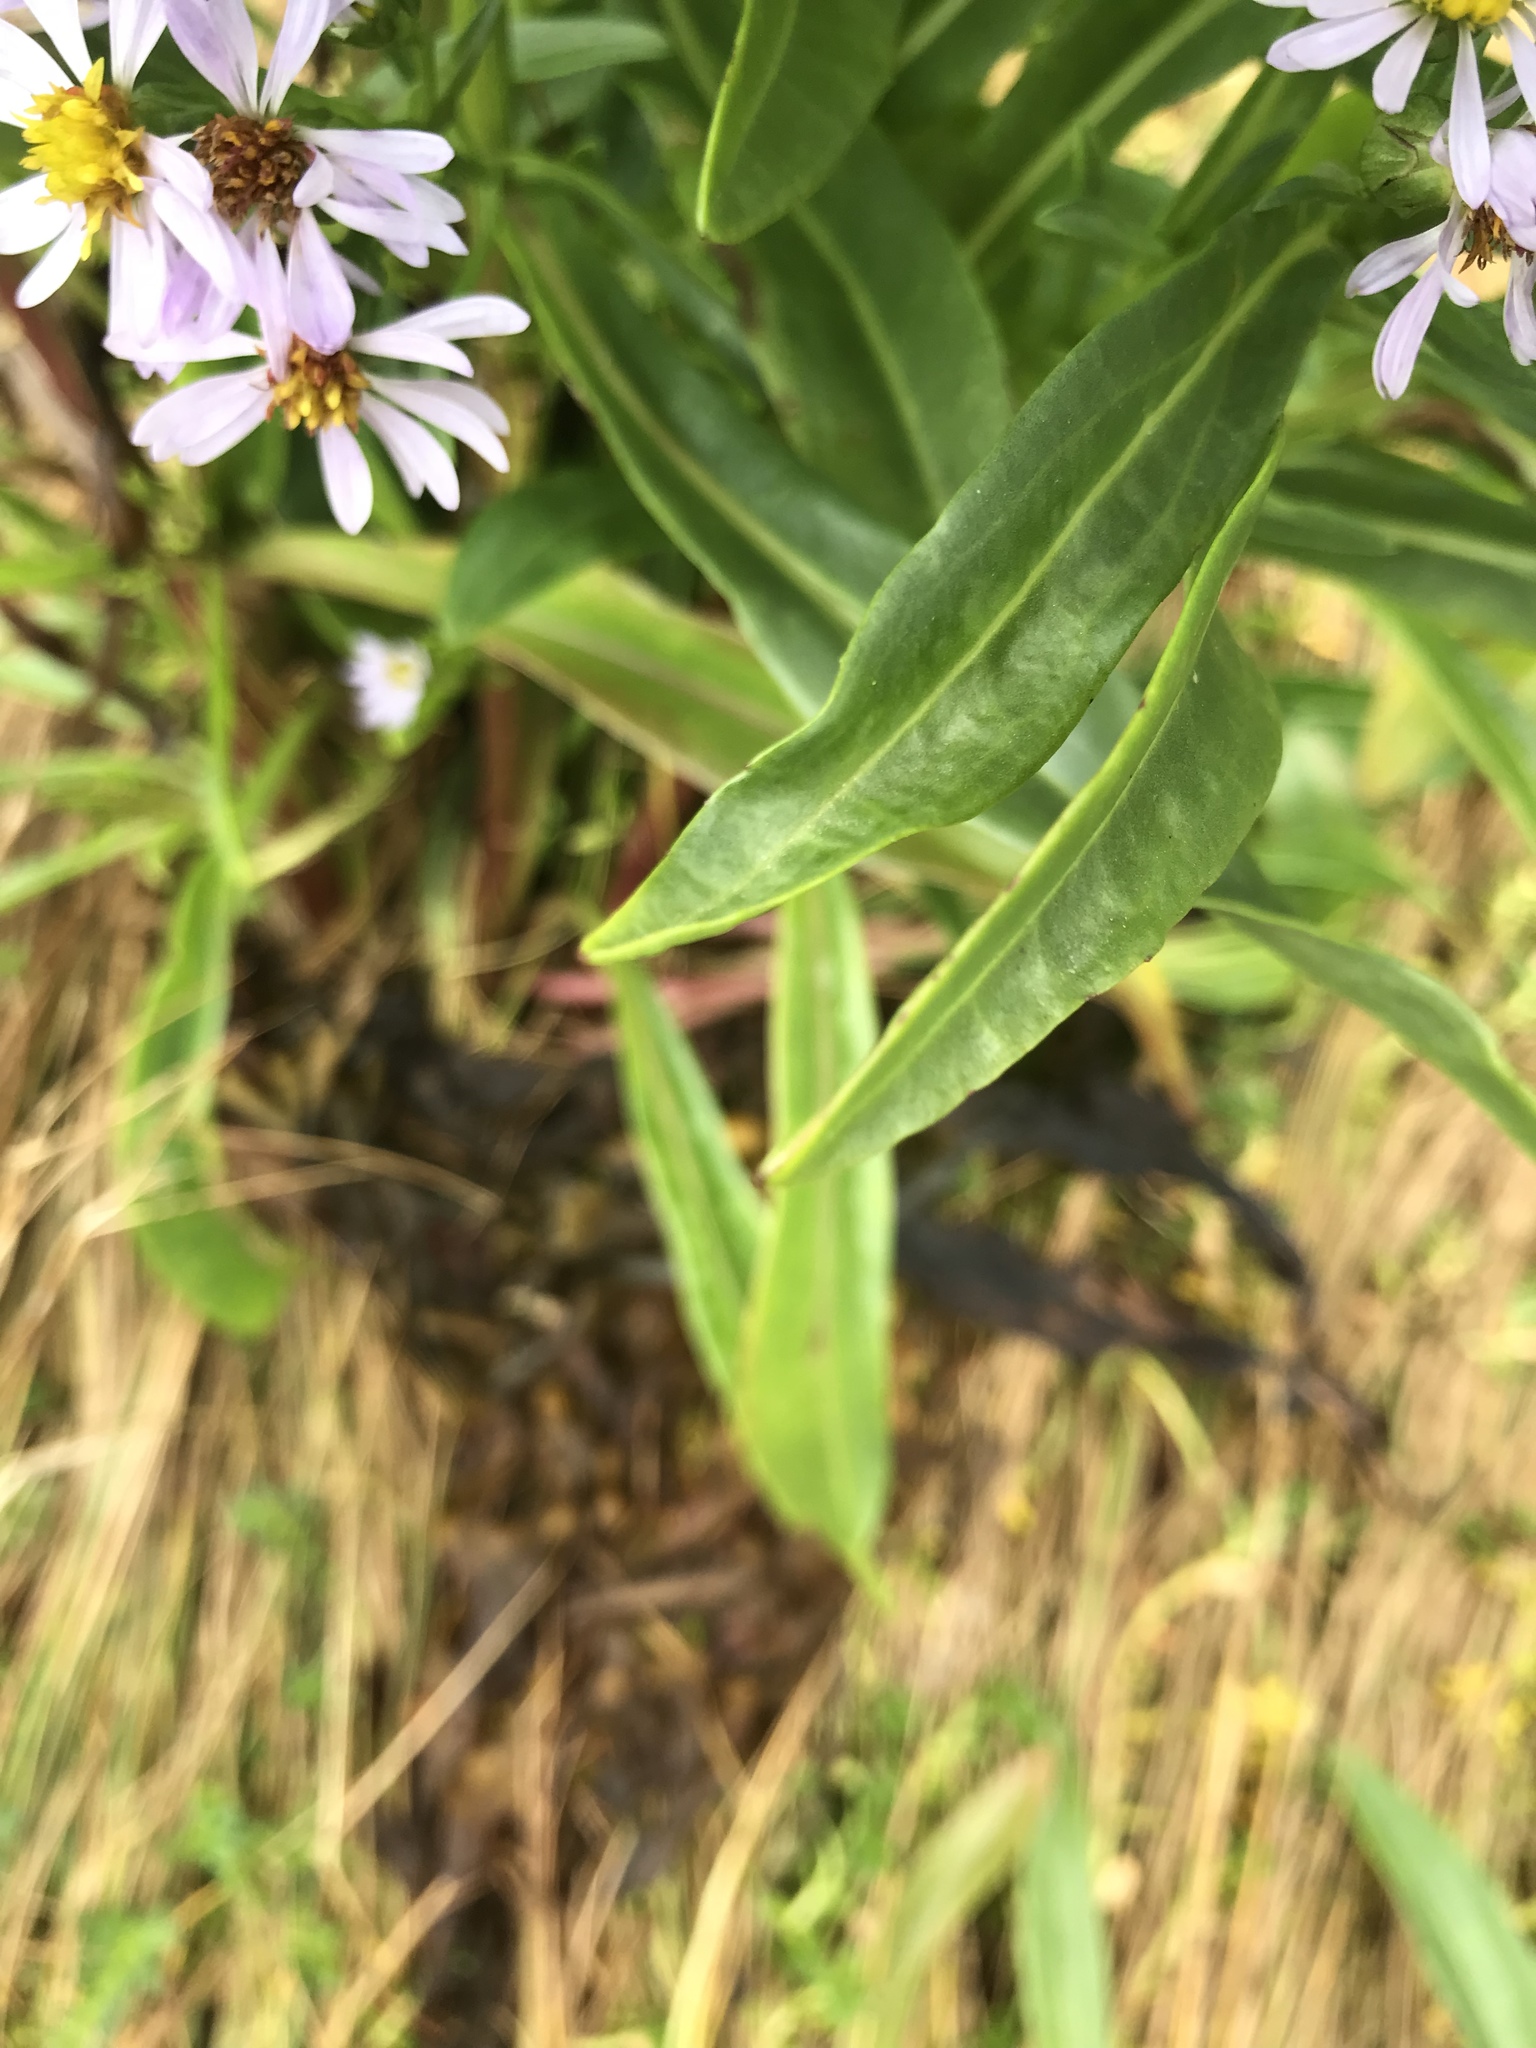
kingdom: Plantae
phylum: Tracheophyta
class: Magnoliopsida
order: Asterales
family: Asteraceae
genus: Tripolium
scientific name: Tripolium pannonicum
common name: Sea aster
